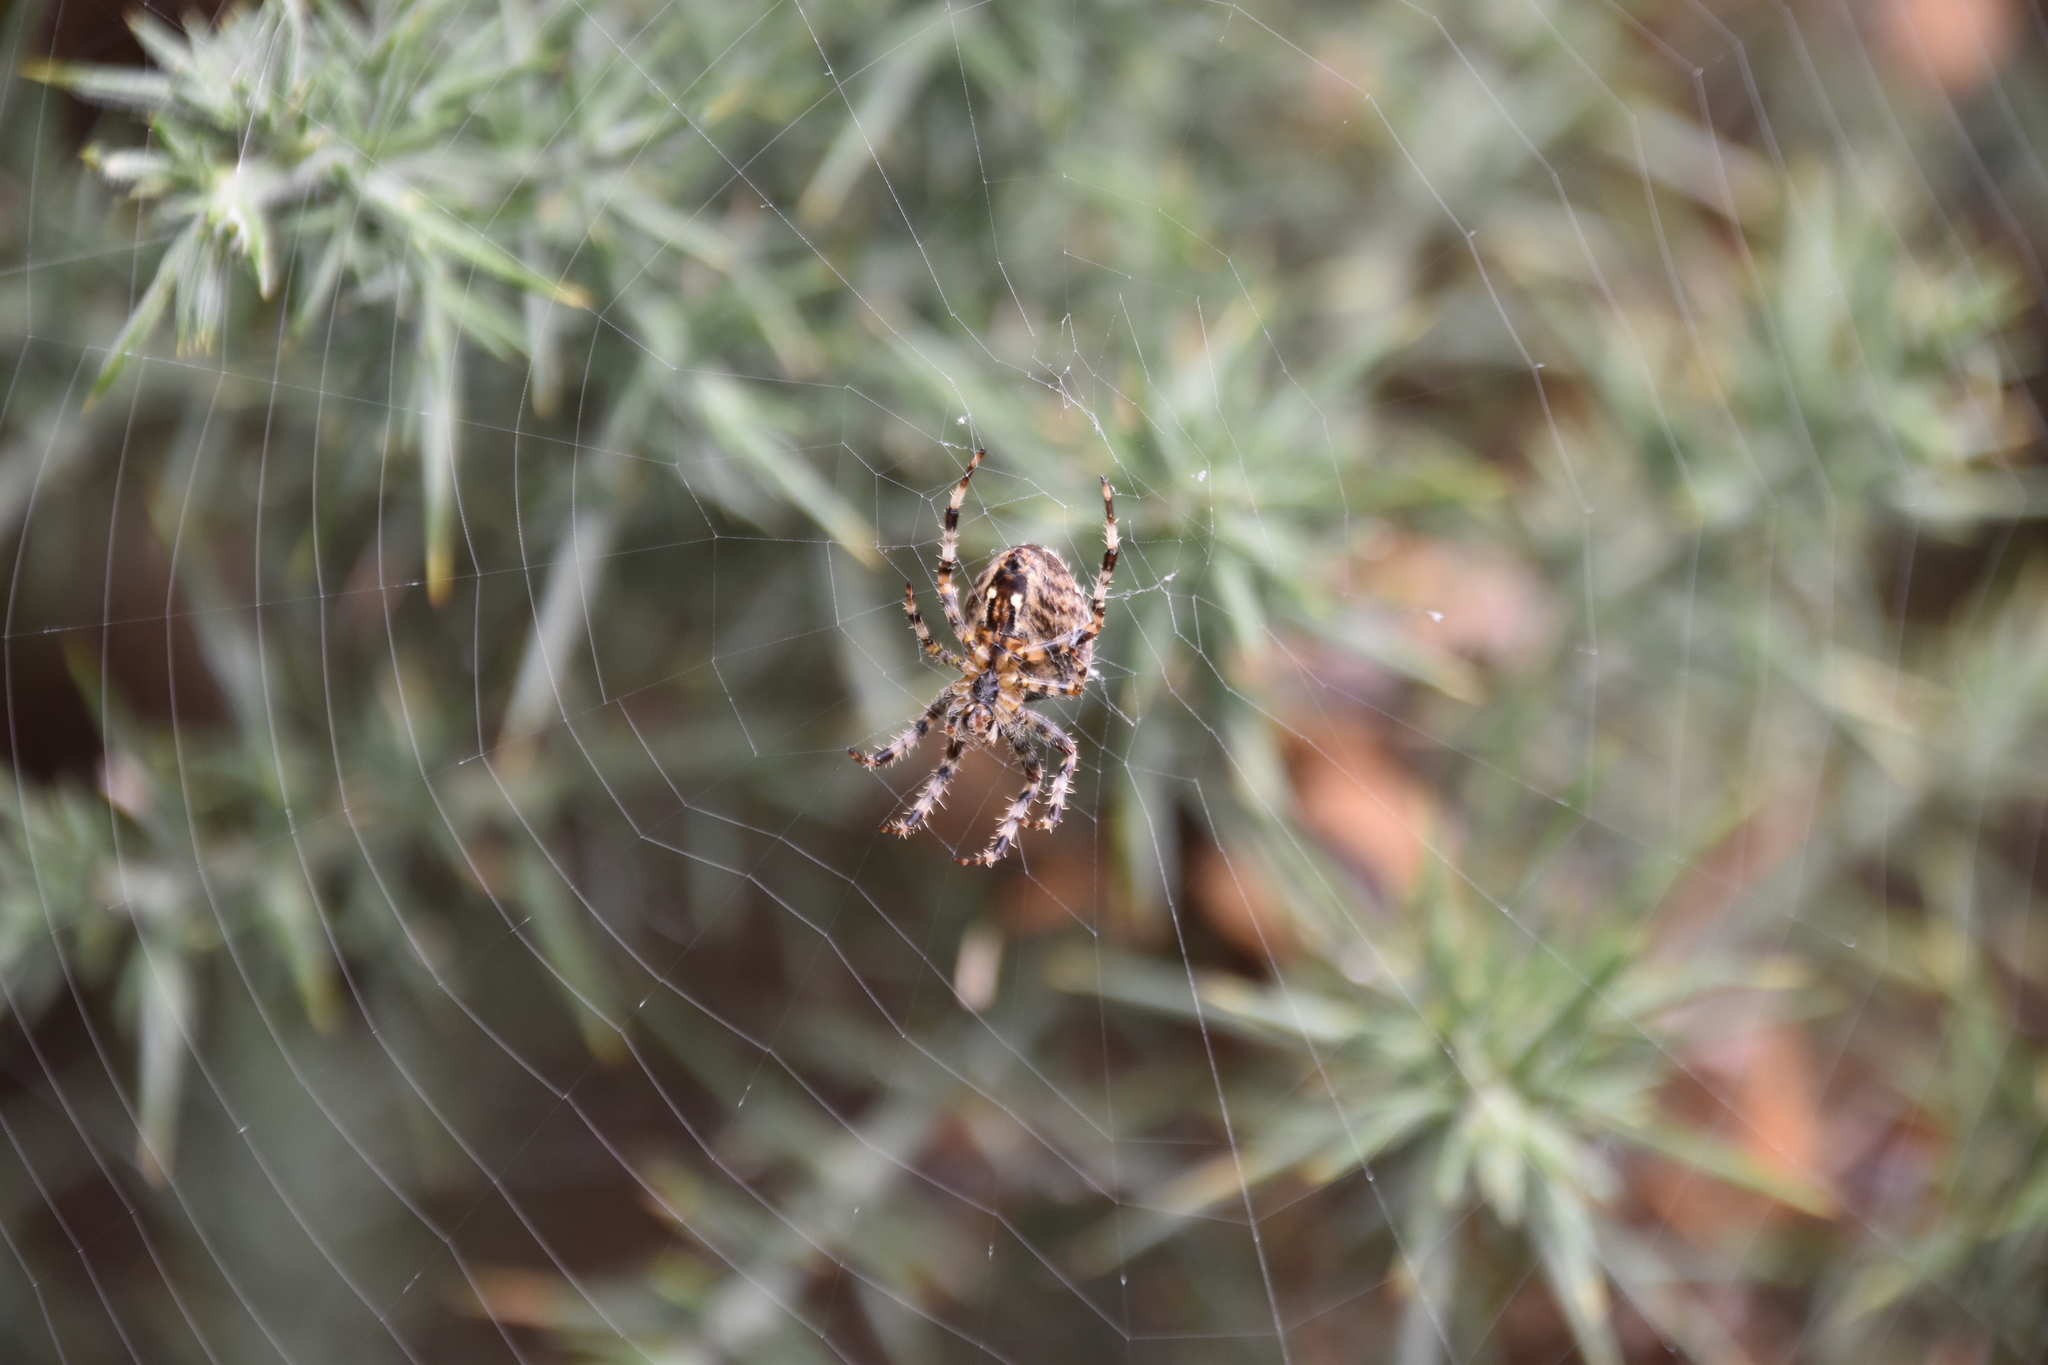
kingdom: Animalia
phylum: Arthropoda
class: Arachnida
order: Araneae
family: Araneidae
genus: Araneus
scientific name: Araneus diadematus
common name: Cross orbweaver
